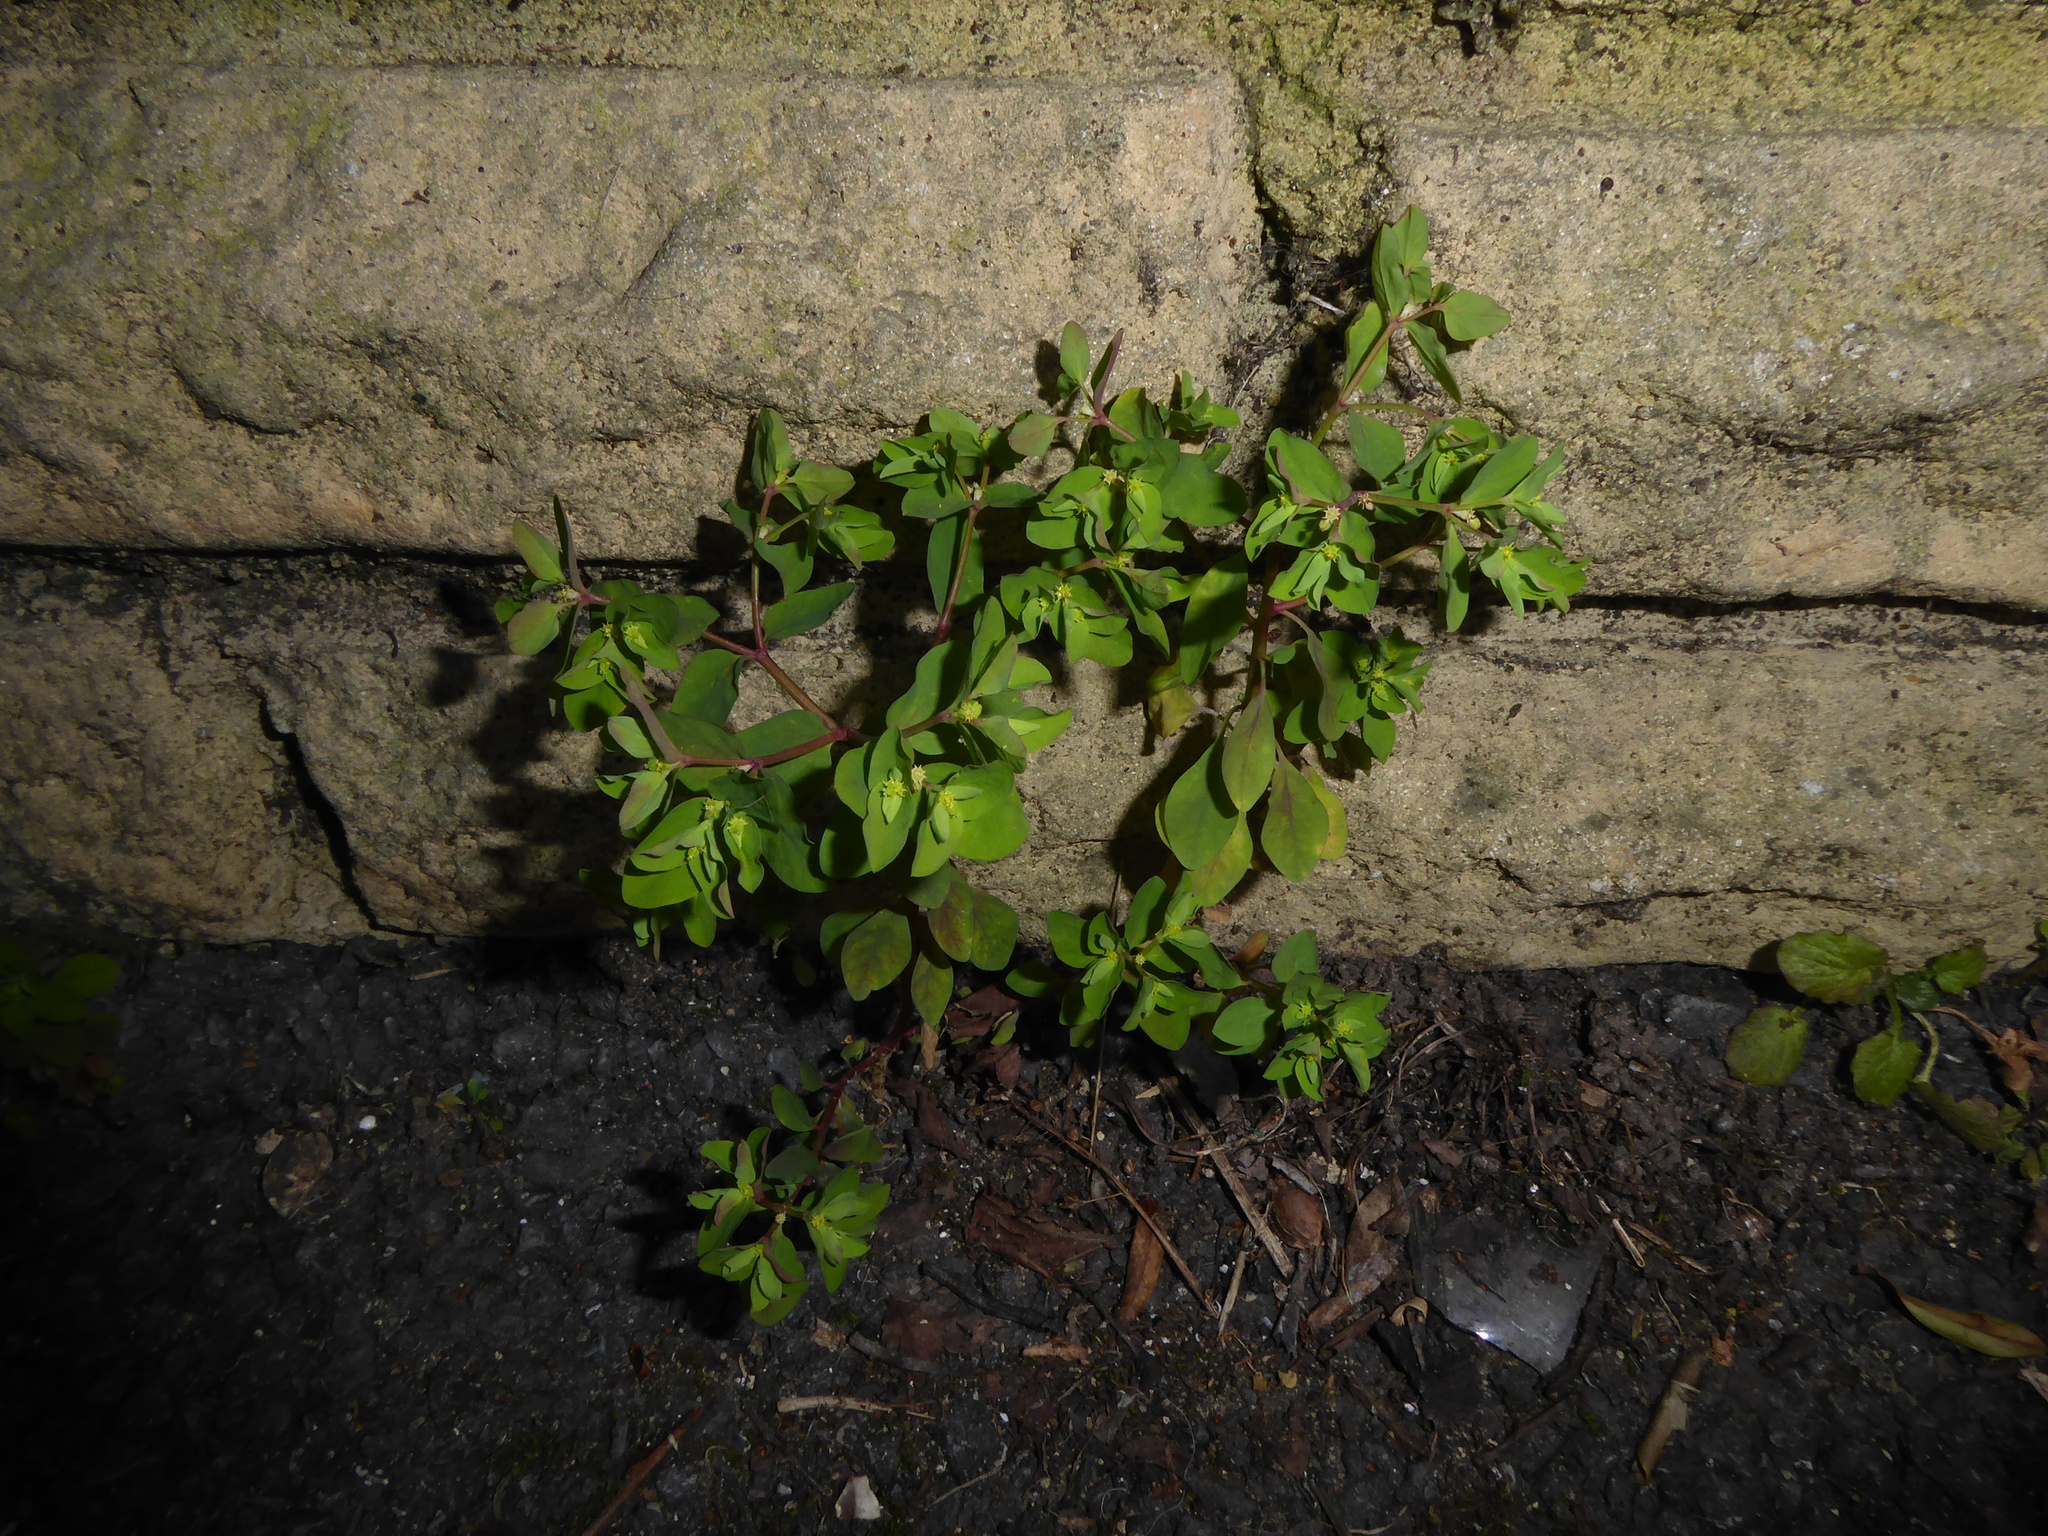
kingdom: Plantae
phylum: Tracheophyta
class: Magnoliopsida
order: Malpighiales
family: Euphorbiaceae
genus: Euphorbia
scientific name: Euphorbia peplus
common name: Petty spurge
